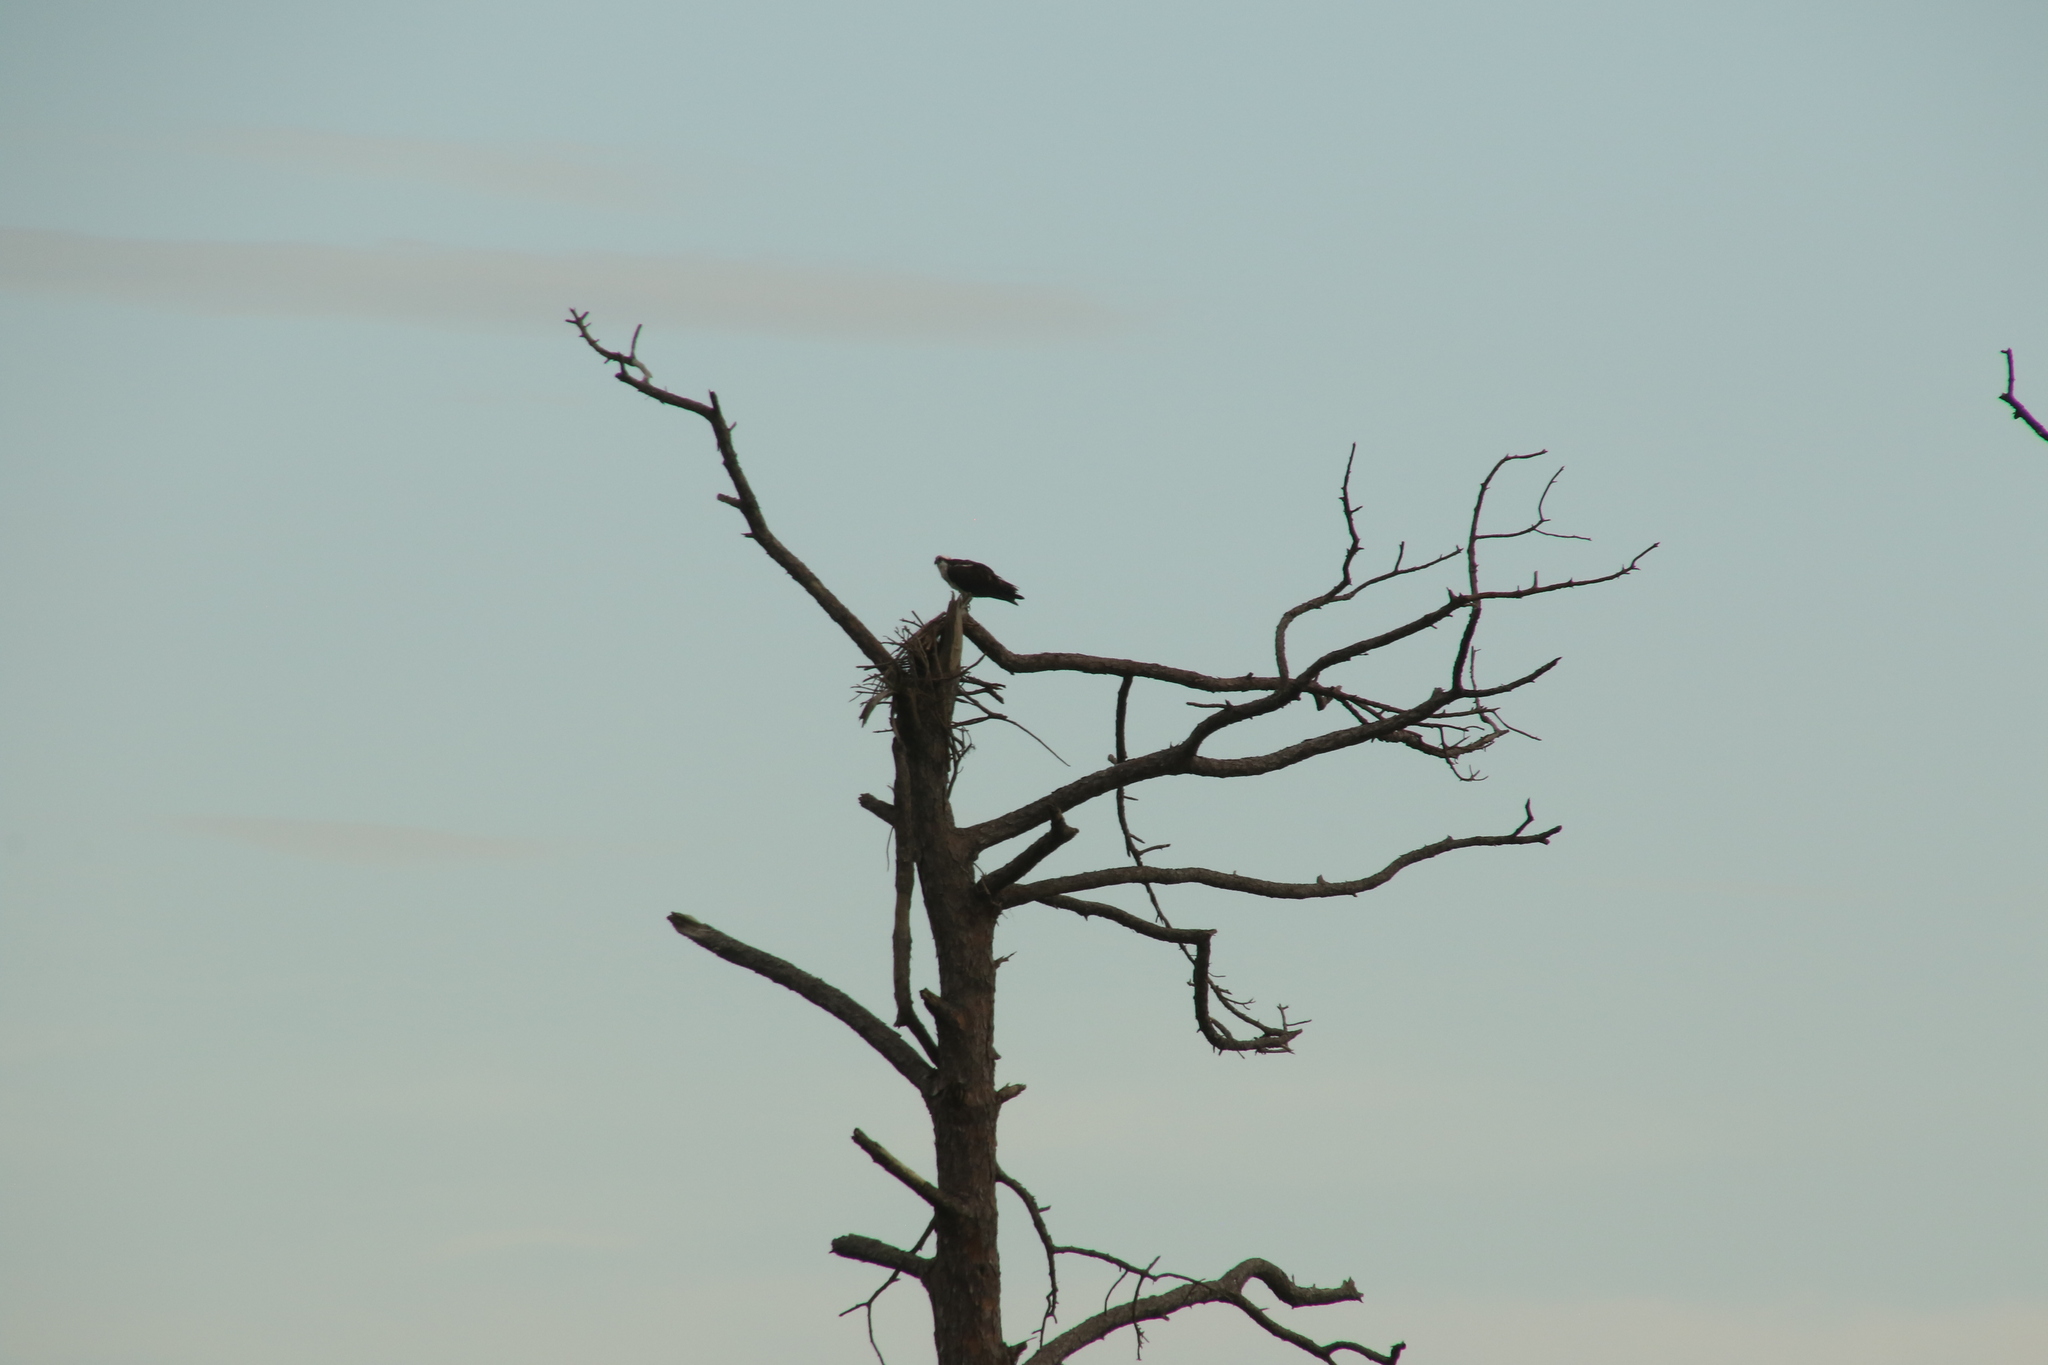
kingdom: Animalia
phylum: Chordata
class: Aves
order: Accipitriformes
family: Pandionidae
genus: Pandion
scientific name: Pandion haliaetus
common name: Osprey
